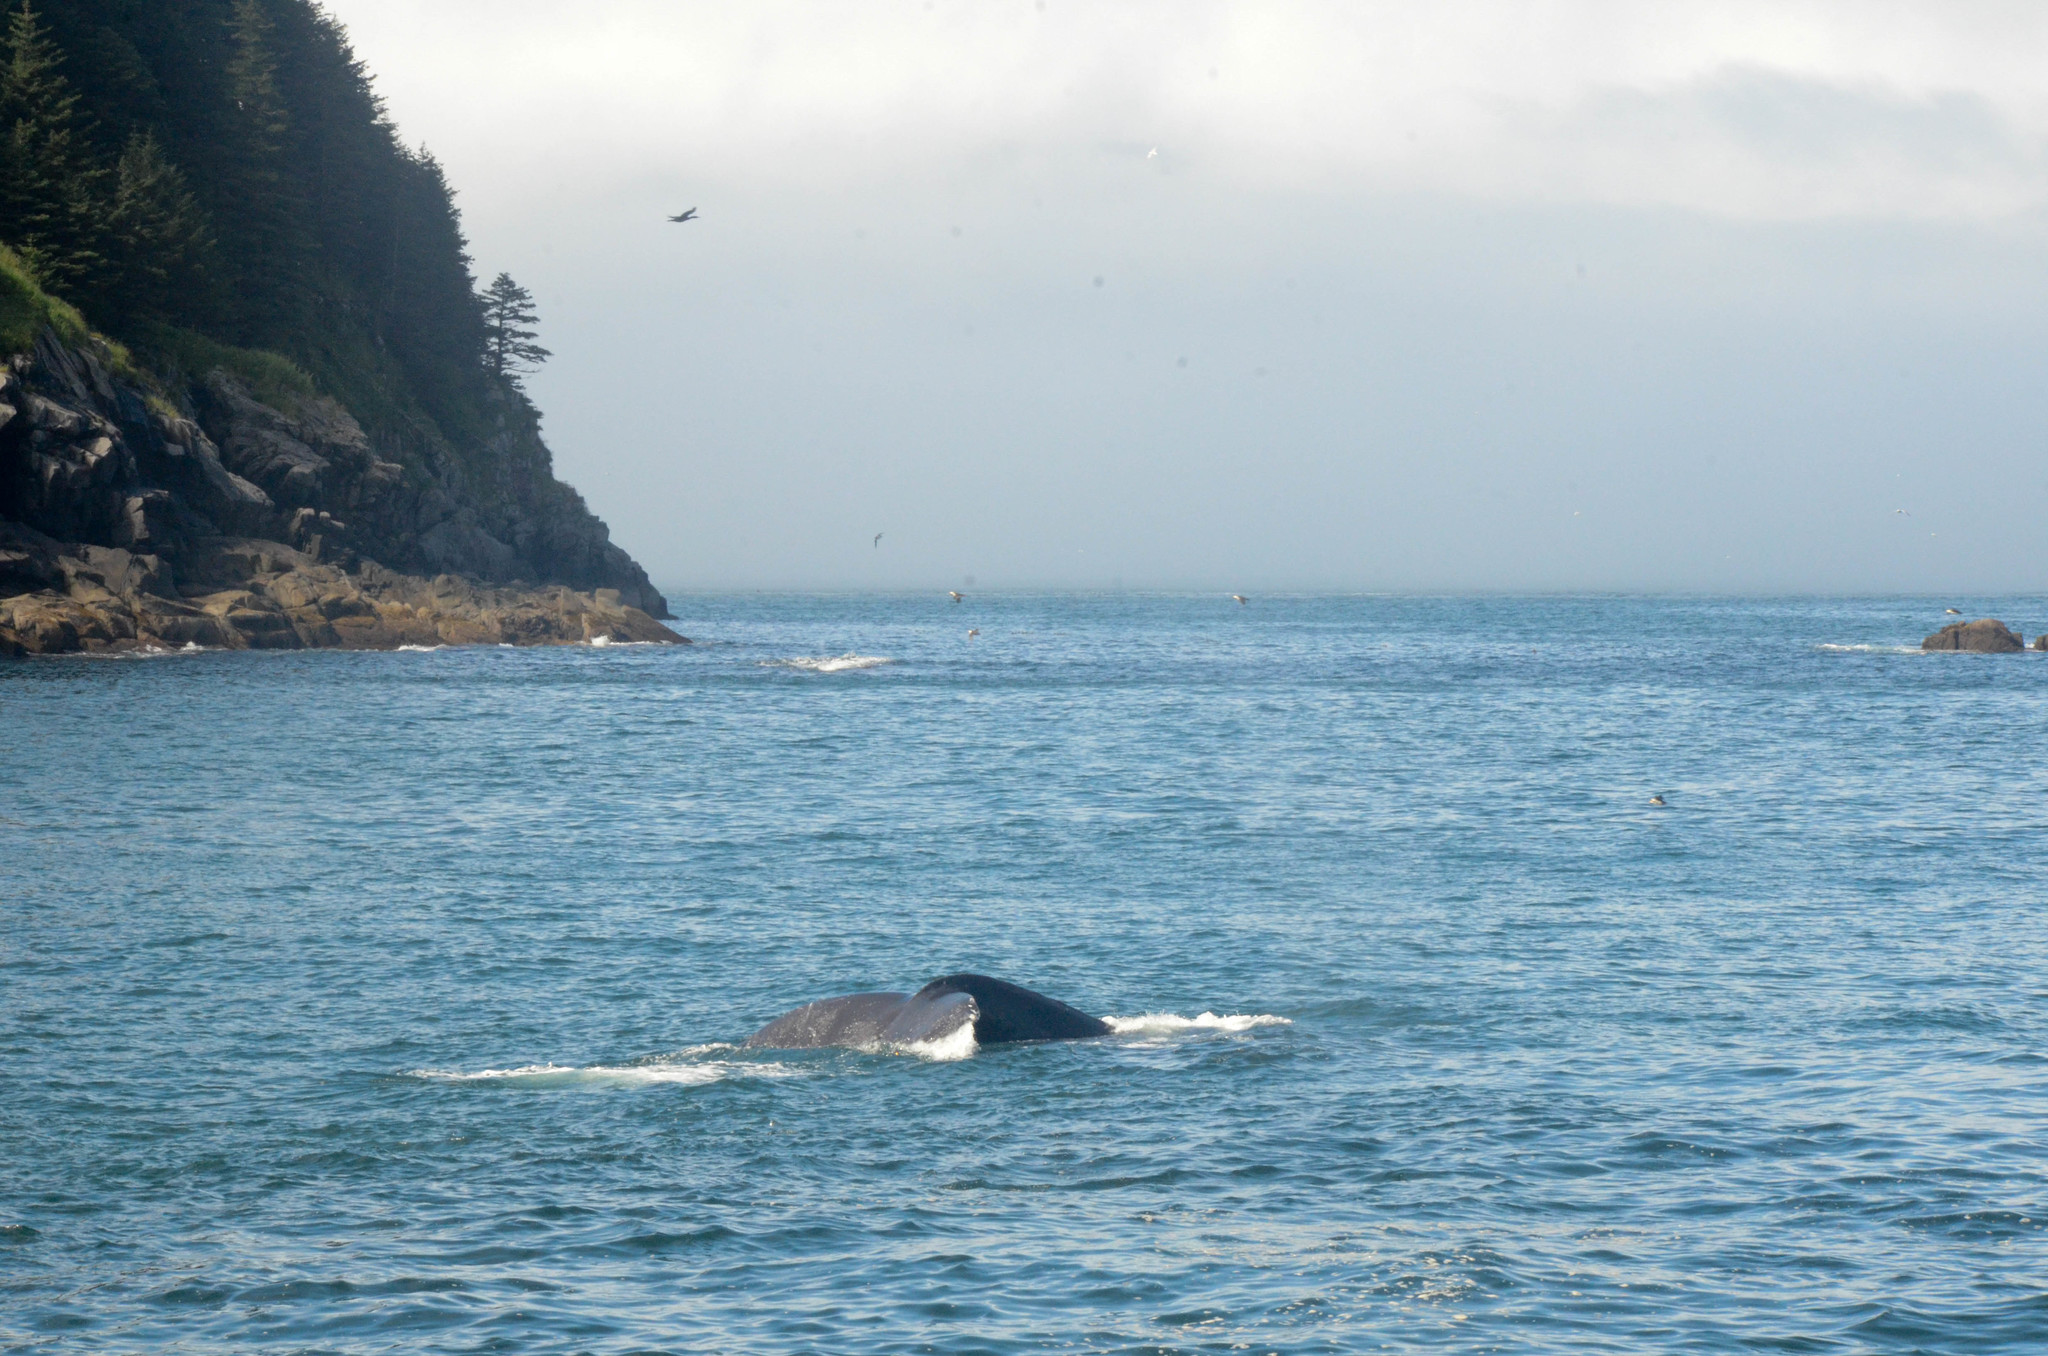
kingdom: Animalia
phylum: Chordata
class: Mammalia
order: Cetacea
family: Balaenopteridae
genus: Megaptera
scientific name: Megaptera novaeangliae
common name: Humpback whale
